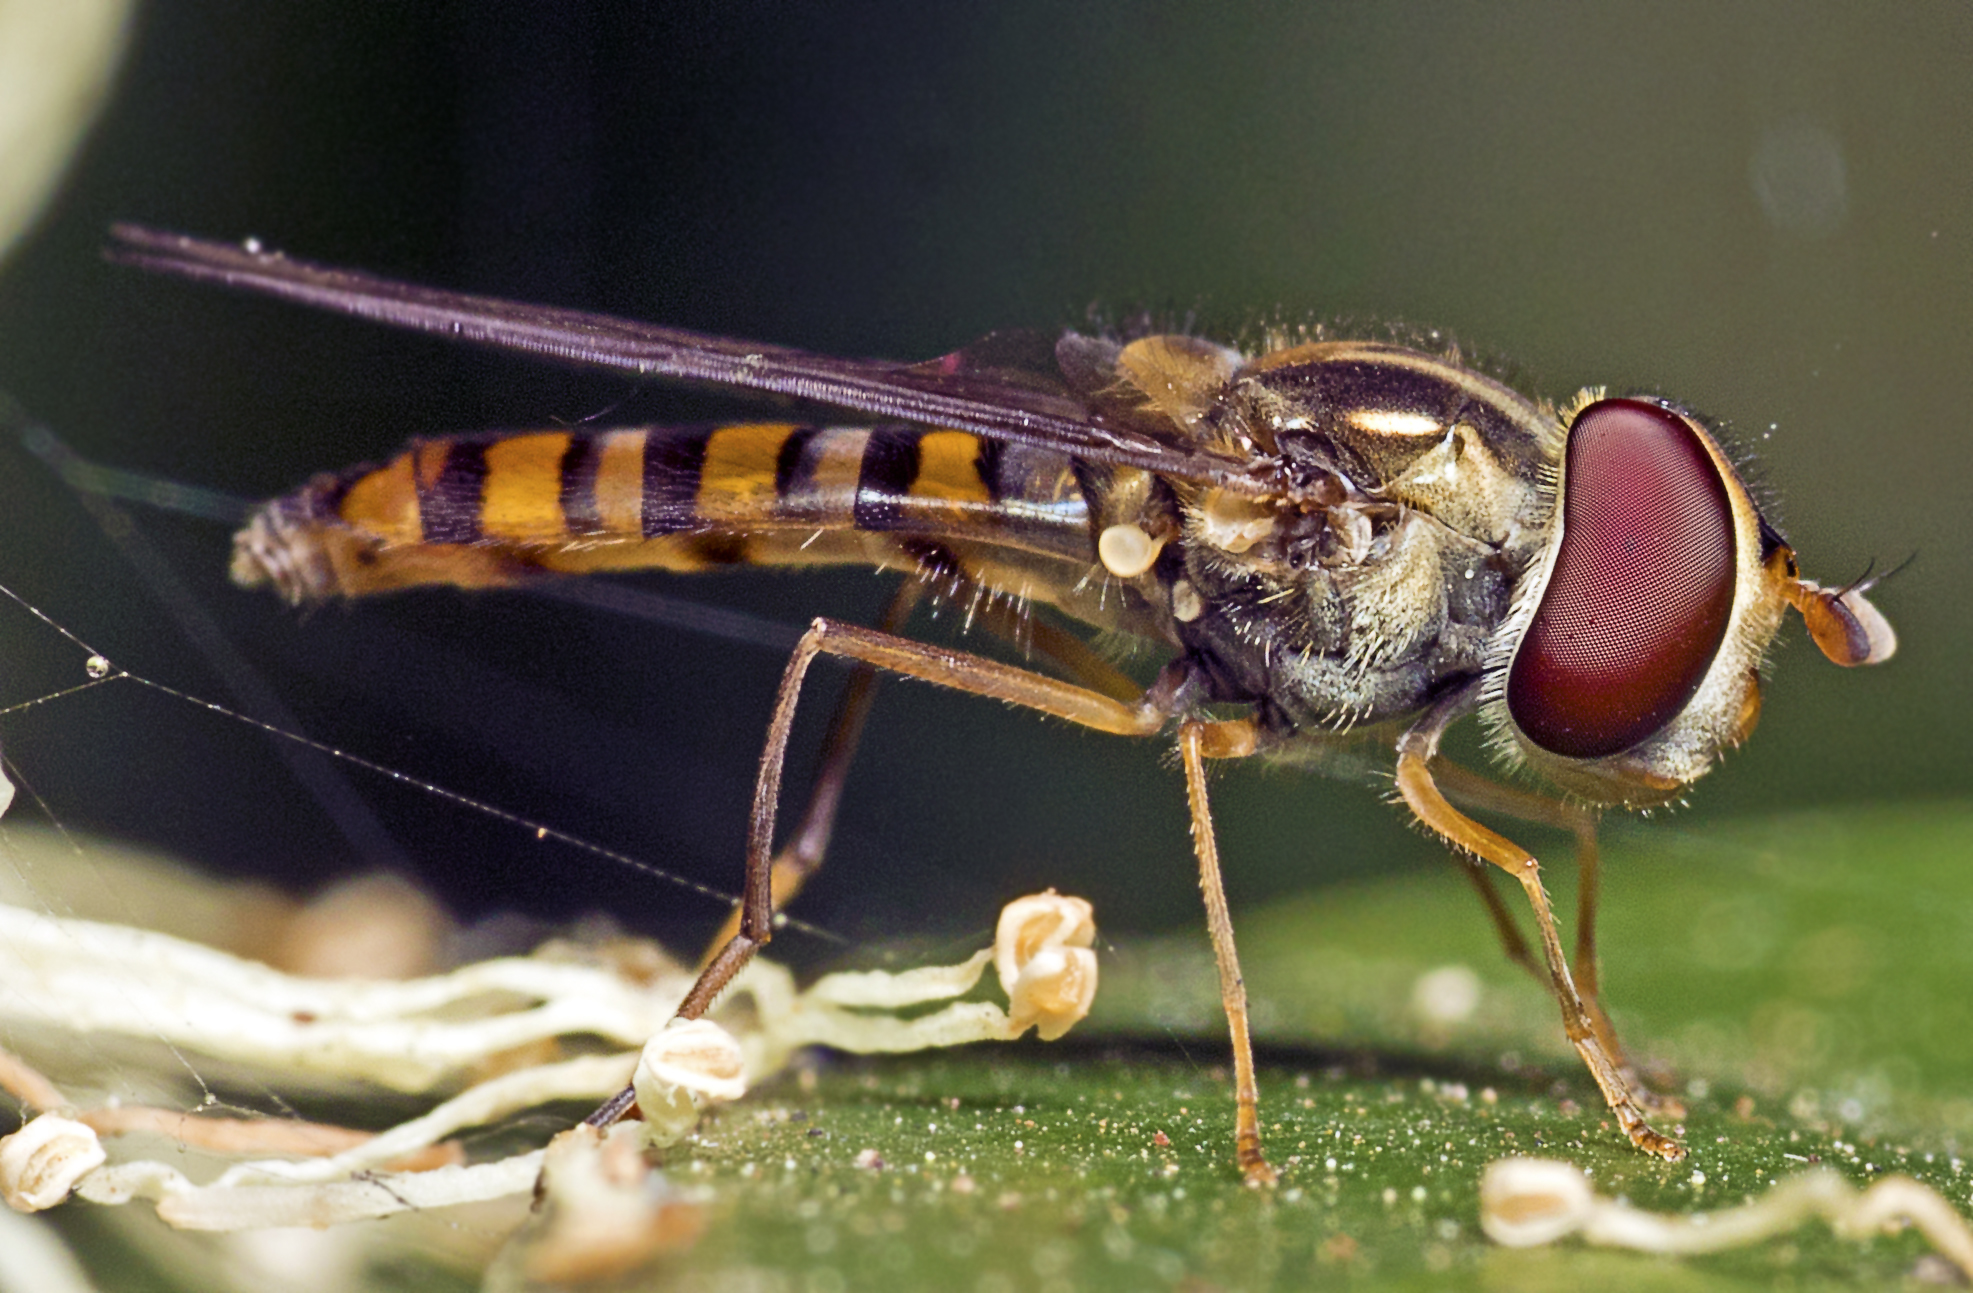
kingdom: Animalia
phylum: Arthropoda
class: Insecta
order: Diptera
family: Syrphidae
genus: Episyrphus
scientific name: Episyrphus viridaureus
